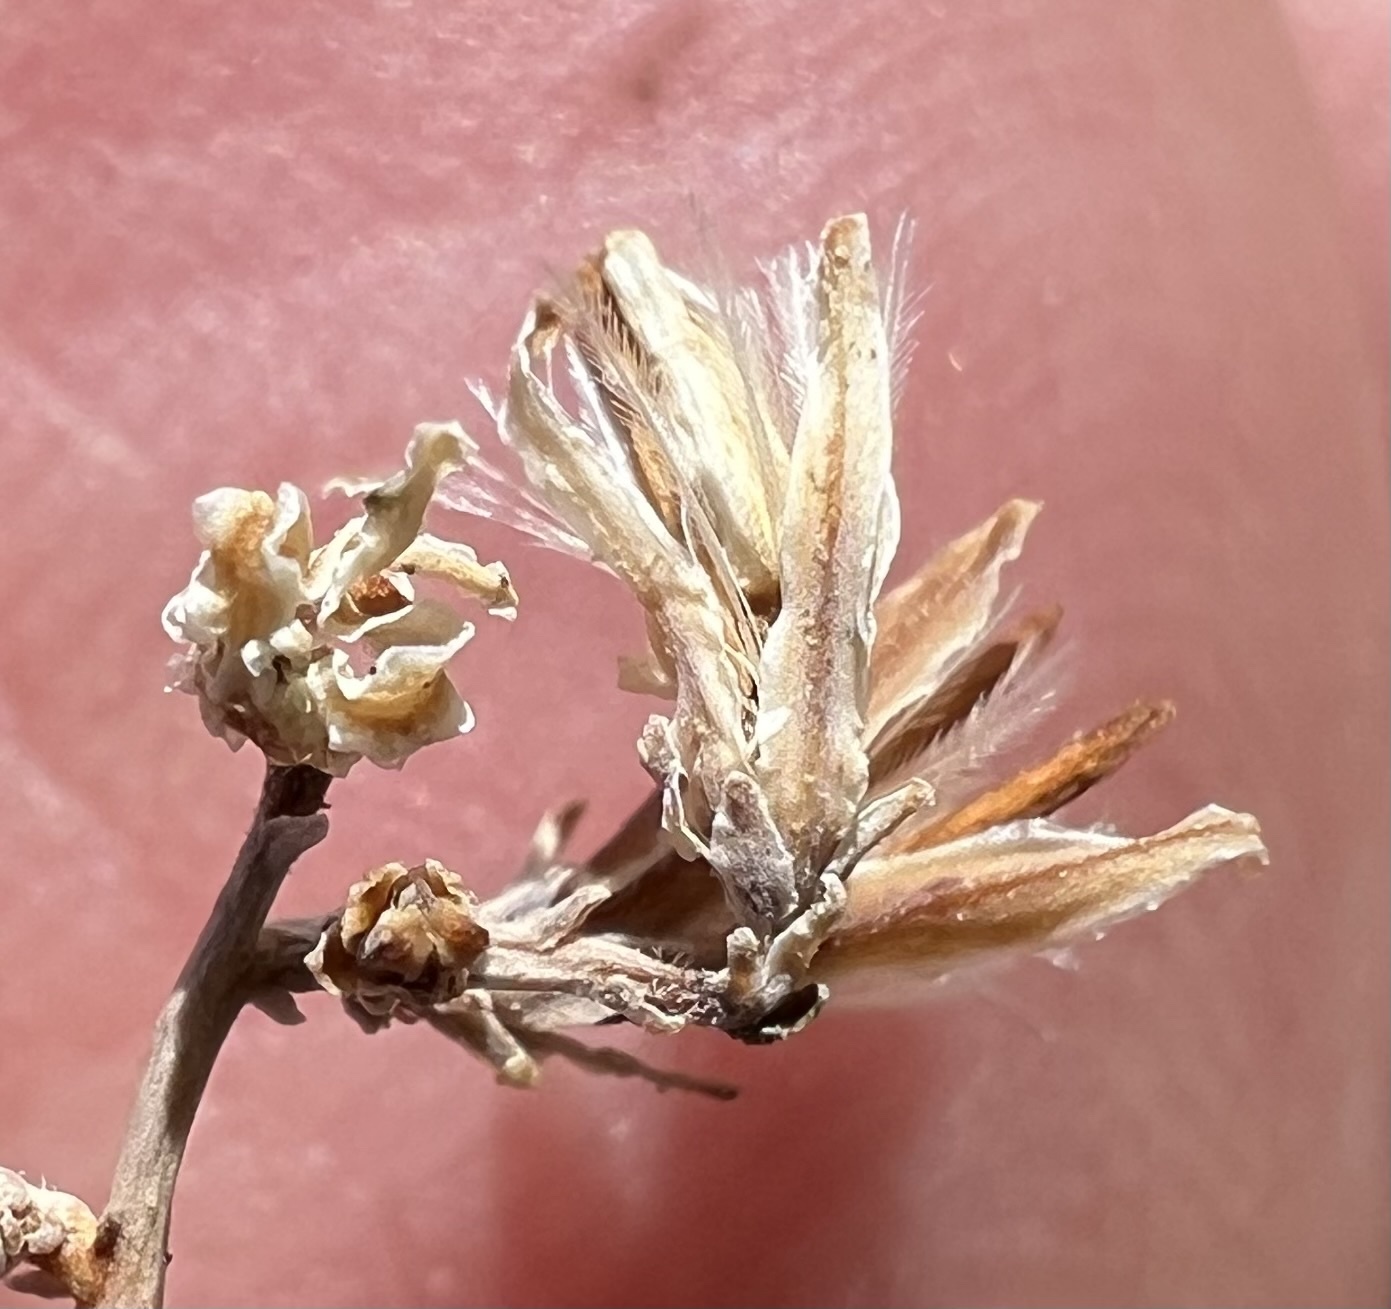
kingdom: Plantae
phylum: Tracheophyta
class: Magnoliopsida
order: Asterales
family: Asteraceae
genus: Stephanomeria
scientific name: Stephanomeria exigua
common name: Small wirelettuce
